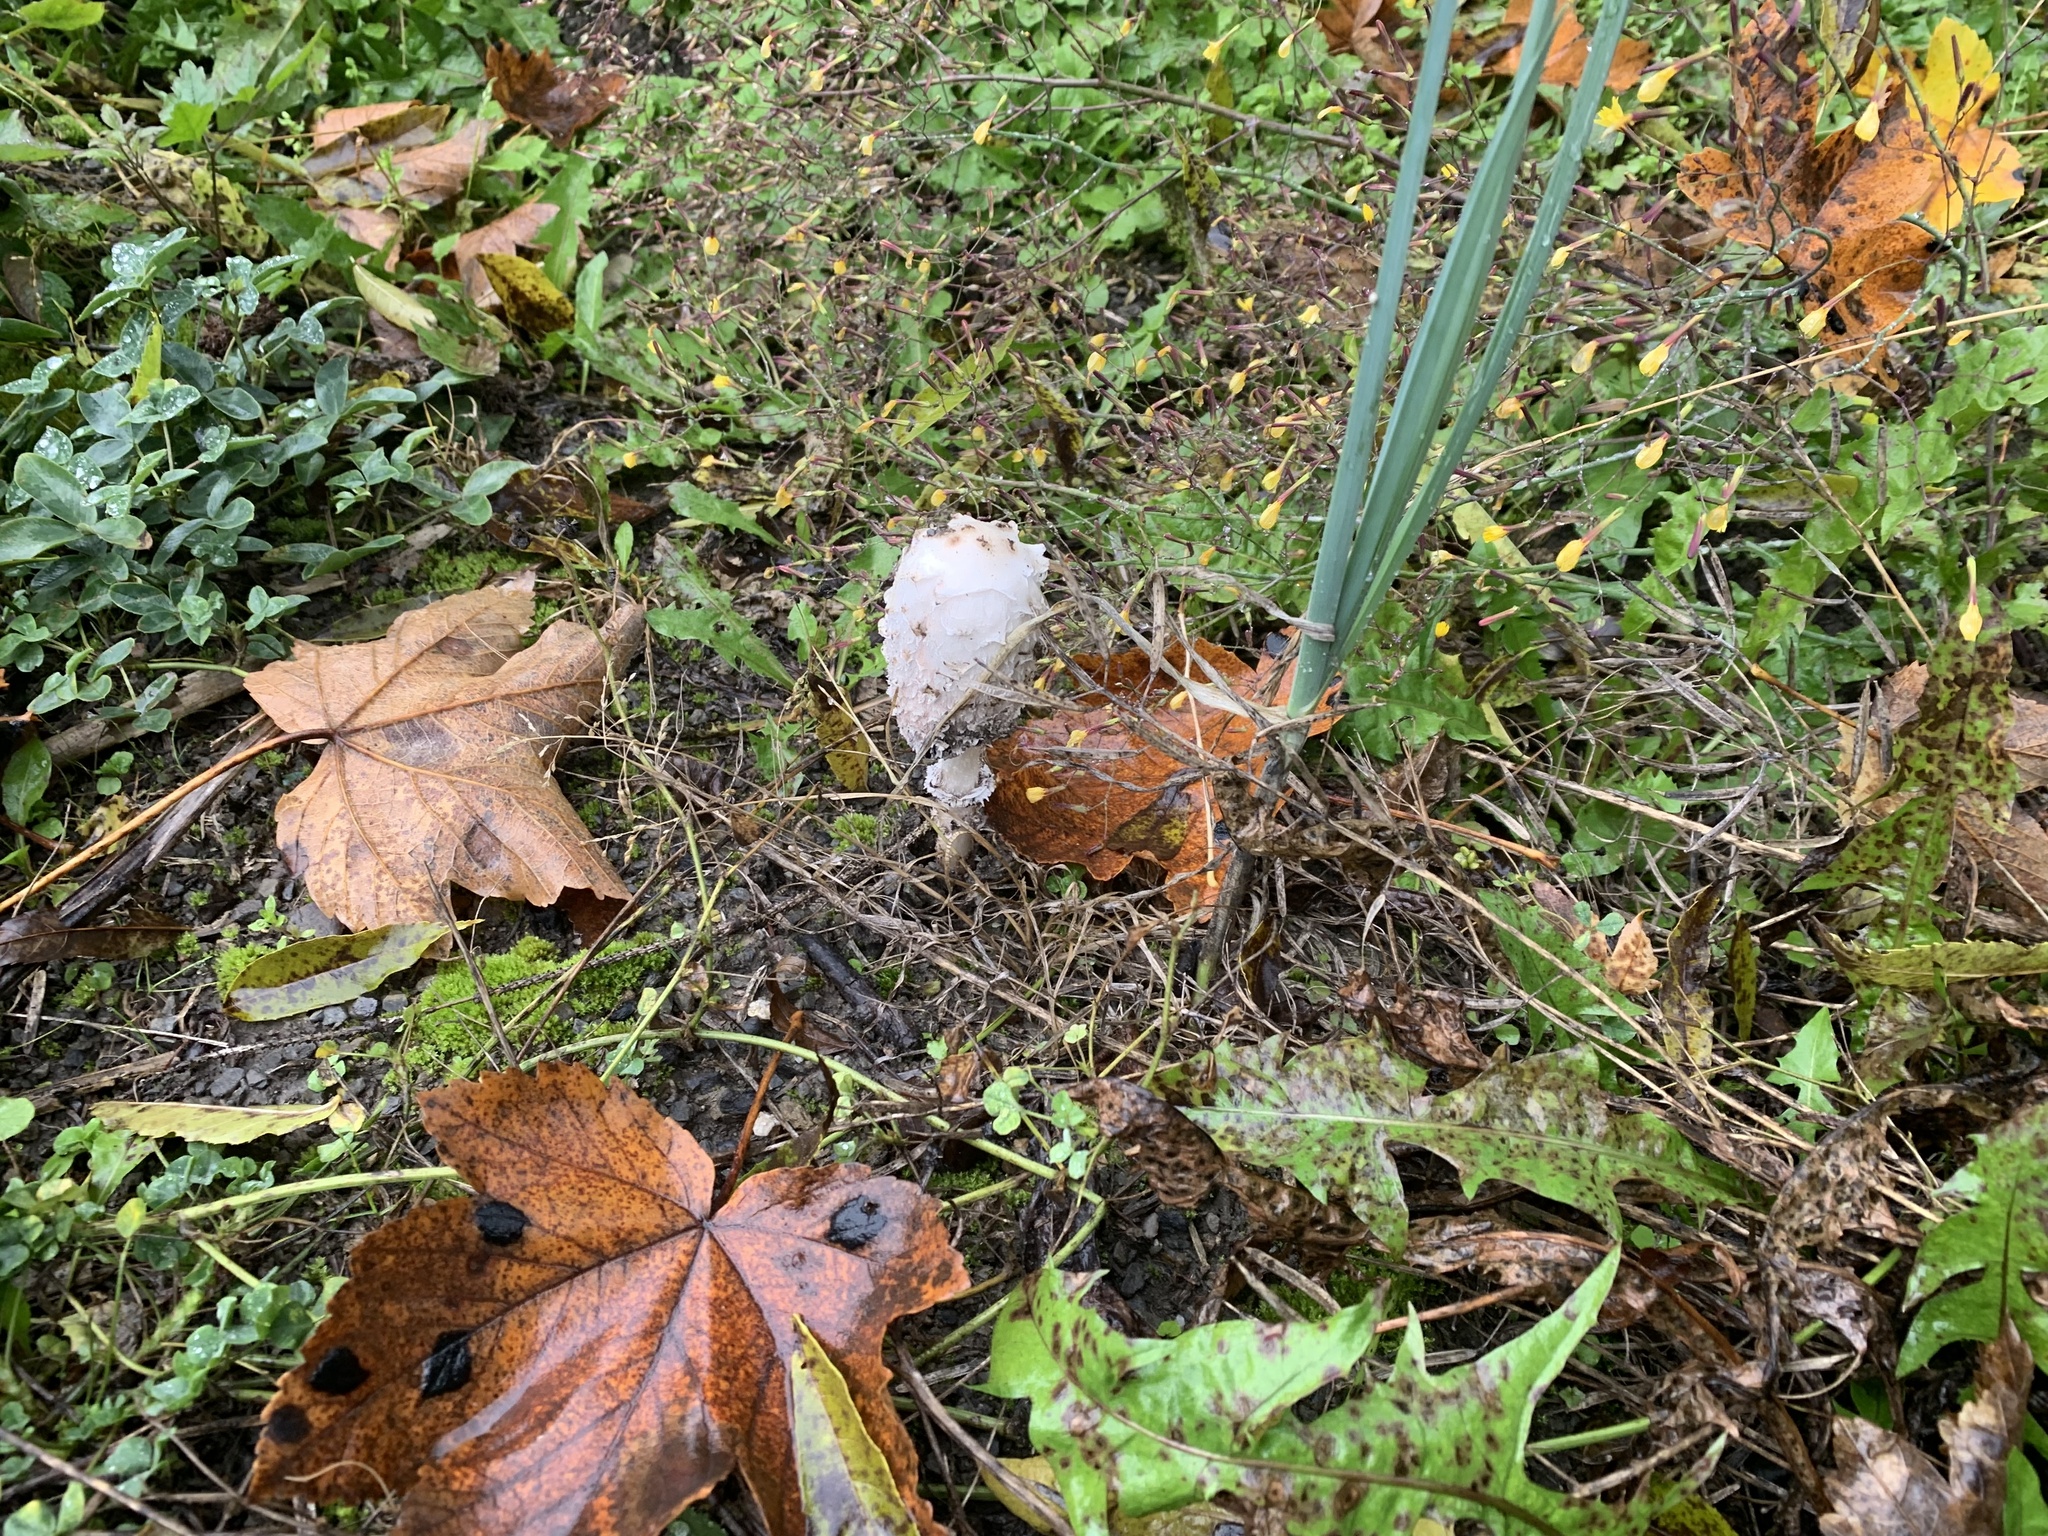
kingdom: Fungi
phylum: Basidiomycota
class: Agaricomycetes
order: Agaricales
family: Agaricaceae
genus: Coprinus
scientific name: Coprinus comatus
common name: Lawyer's wig
